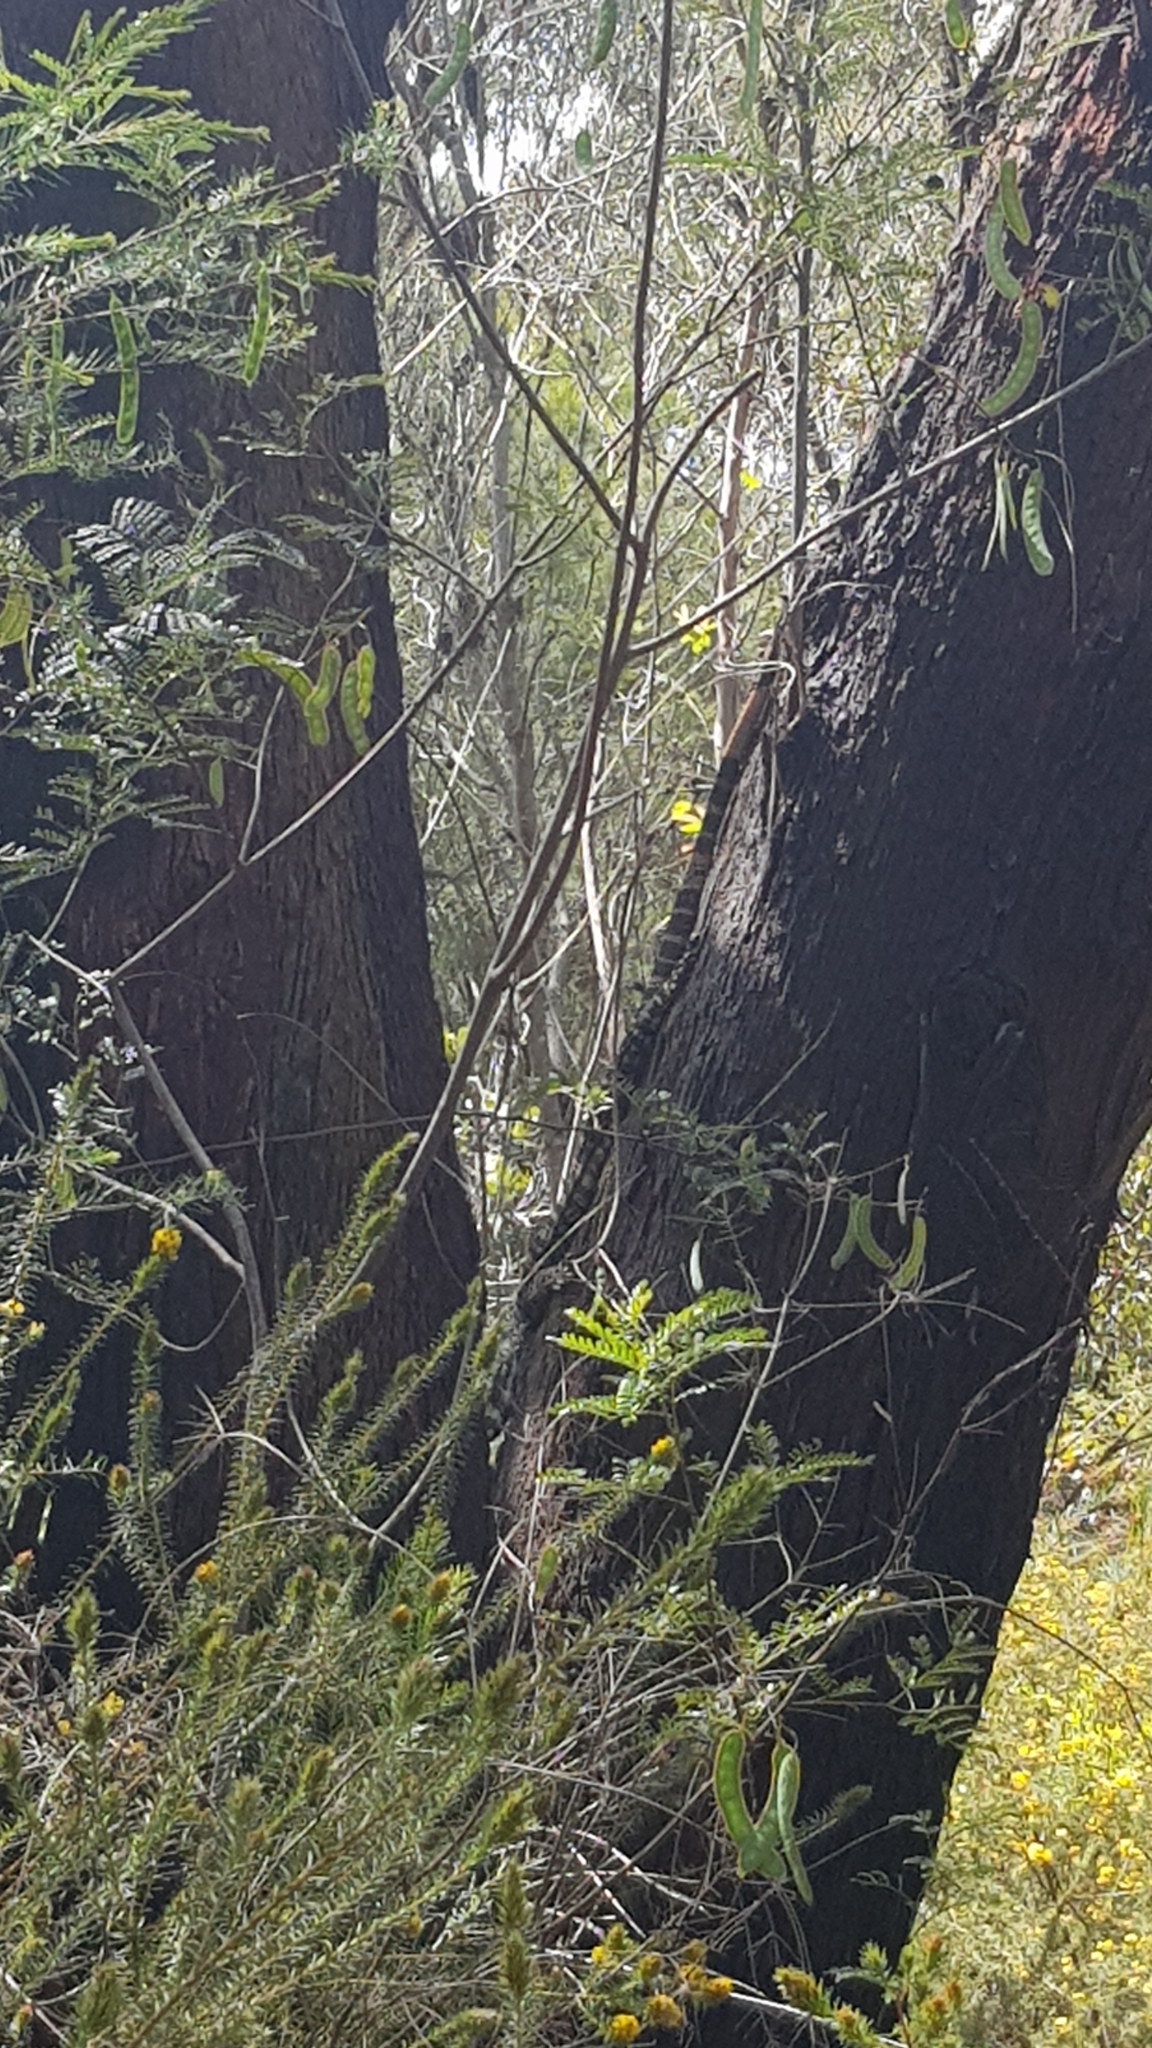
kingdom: Animalia
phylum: Chordata
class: Squamata
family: Varanidae
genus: Varanus
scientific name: Varanus varius
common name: Lace monitor
